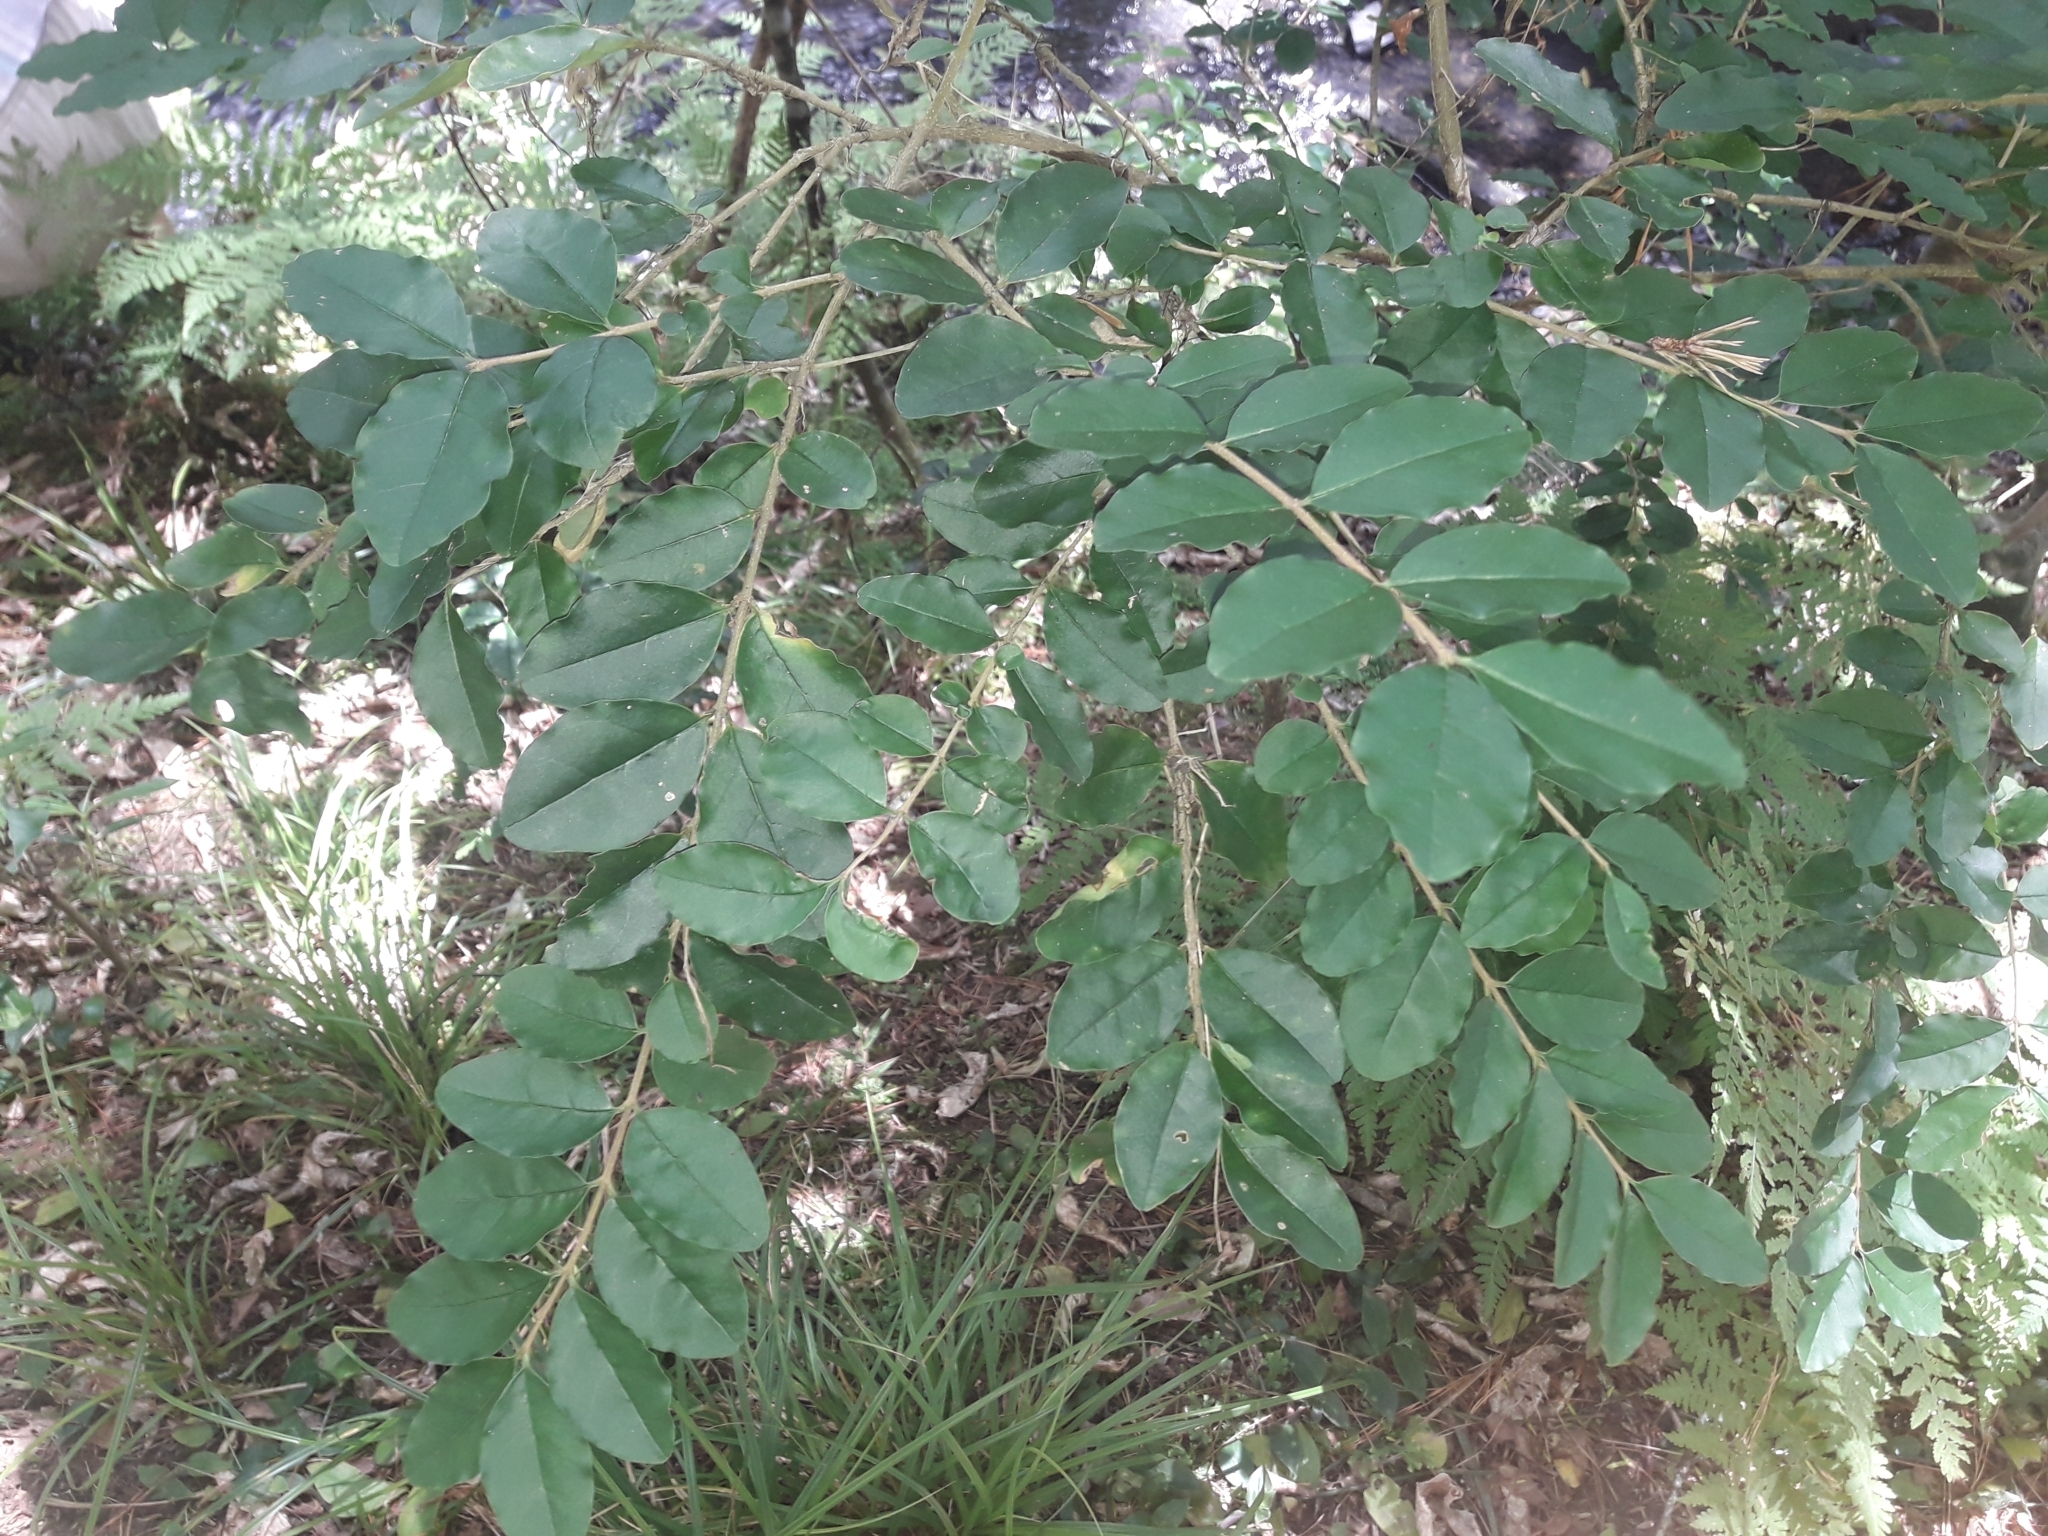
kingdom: Plantae
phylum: Tracheophyta
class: Magnoliopsida
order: Lamiales
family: Oleaceae
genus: Ligustrum
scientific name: Ligustrum sinense
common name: Chinese privet
